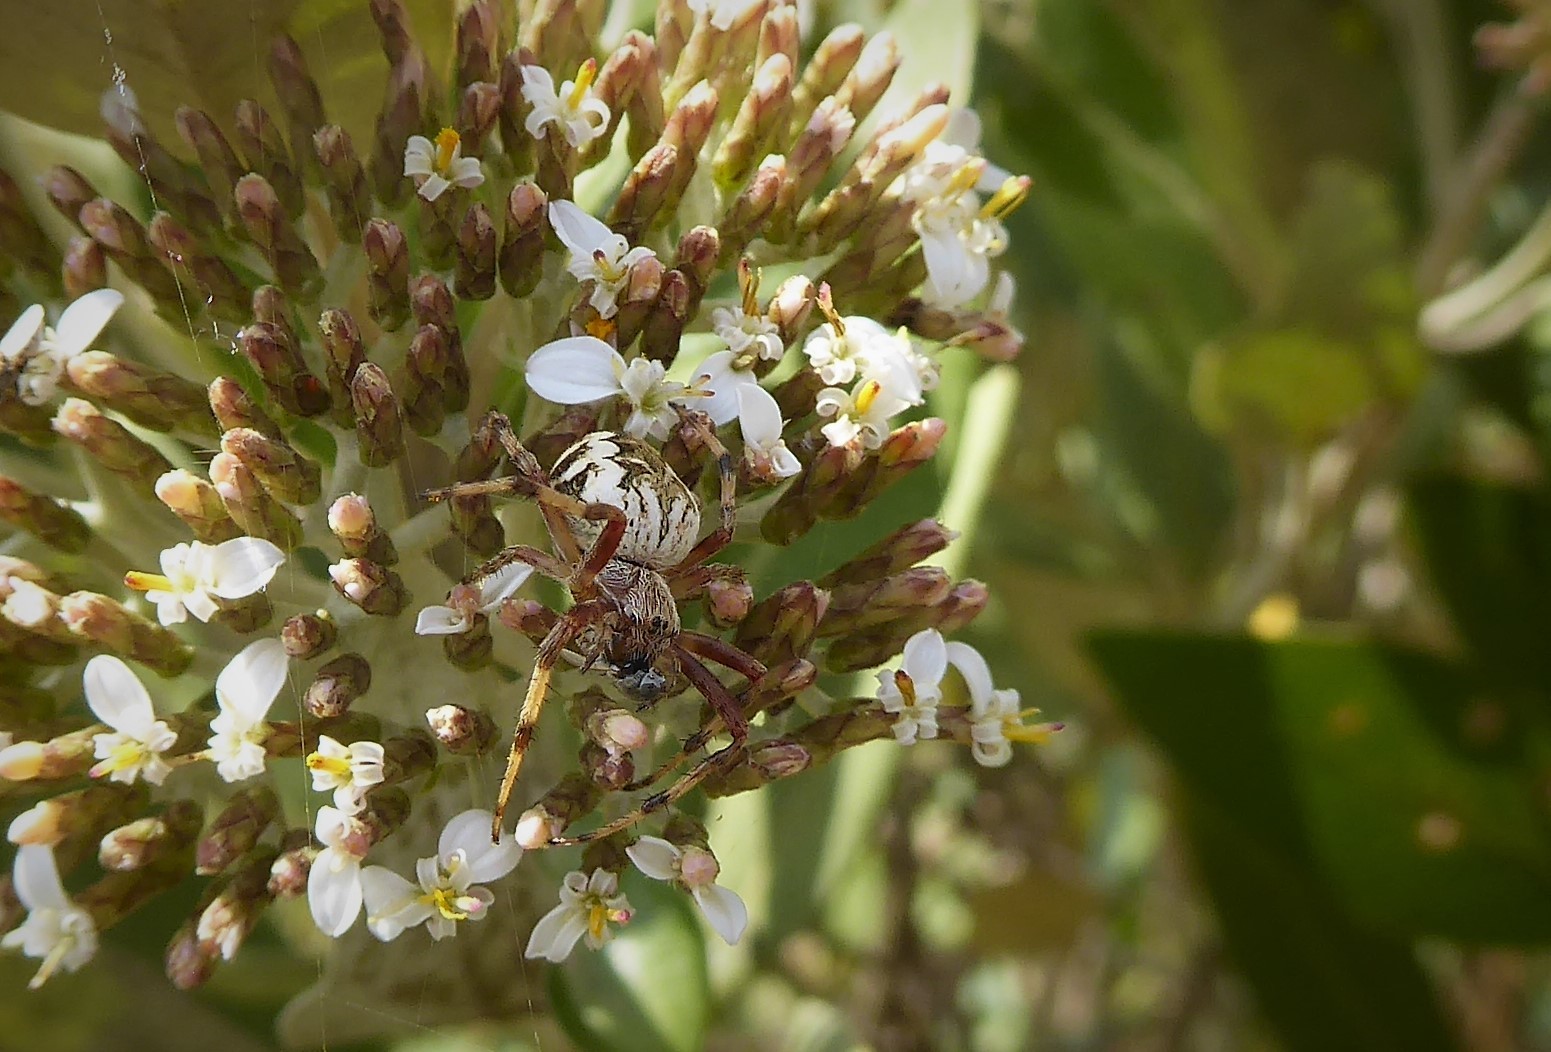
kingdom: Animalia
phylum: Arthropoda
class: Arachnida
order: Araneae
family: Araneidae
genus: Salsa
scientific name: Salsa fuliginata
